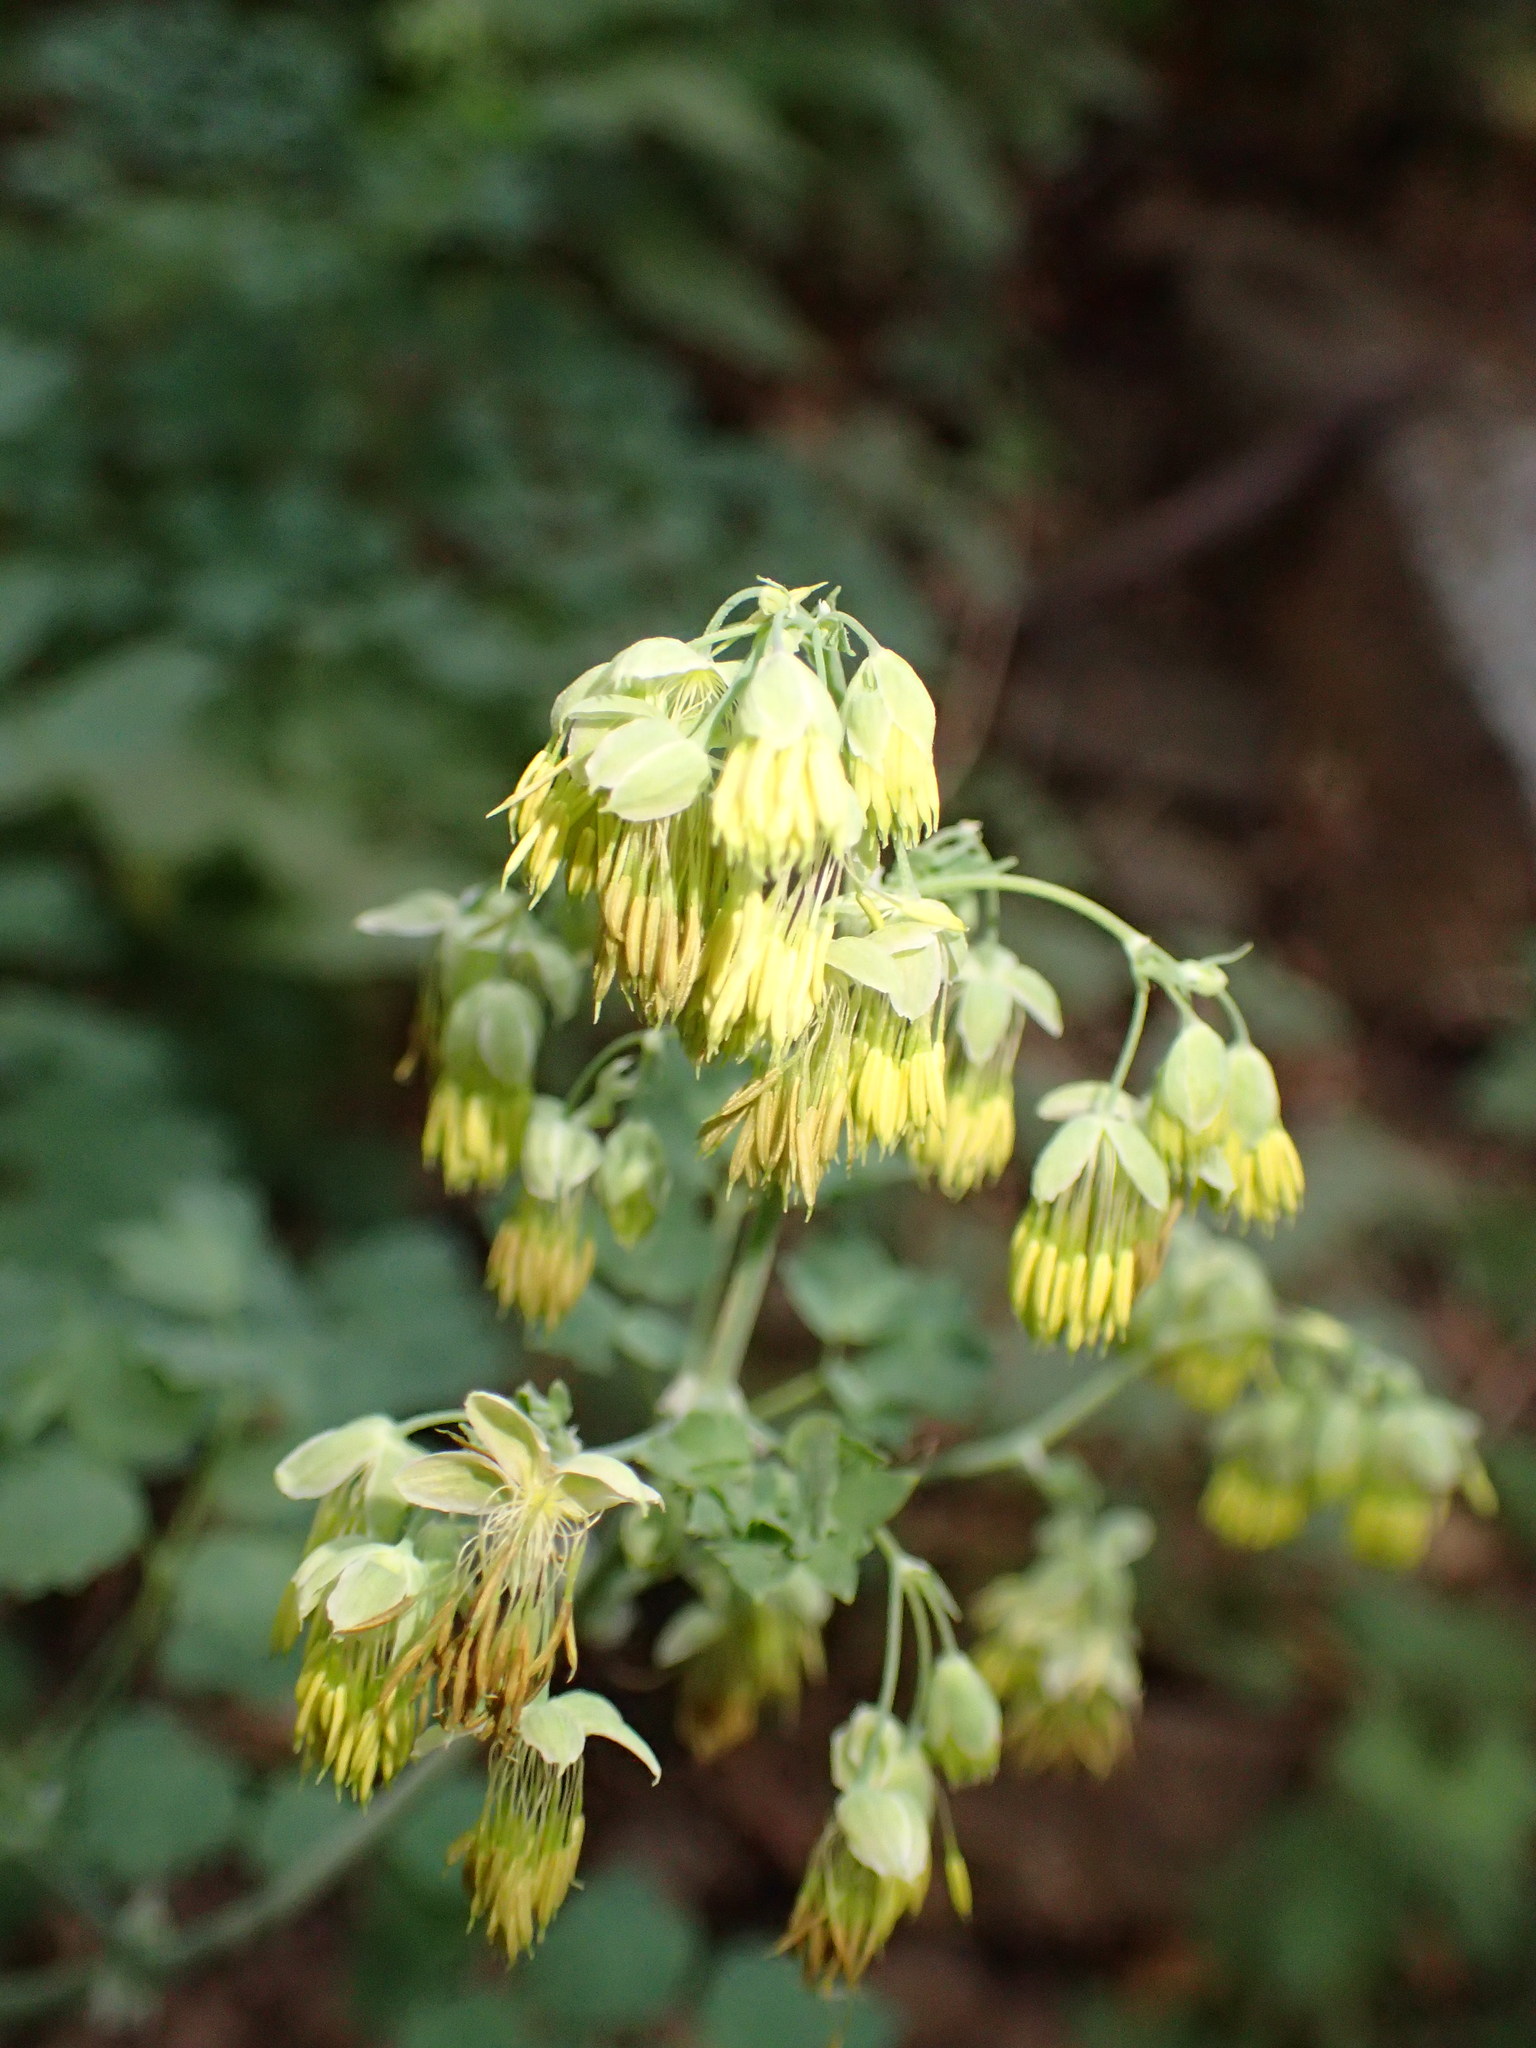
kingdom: Plantae
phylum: Tracheophyta
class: Magnoliopsida
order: Ranunculales
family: Ranunculaceae
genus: Thalictrum
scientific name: Thalictrum fendleri
